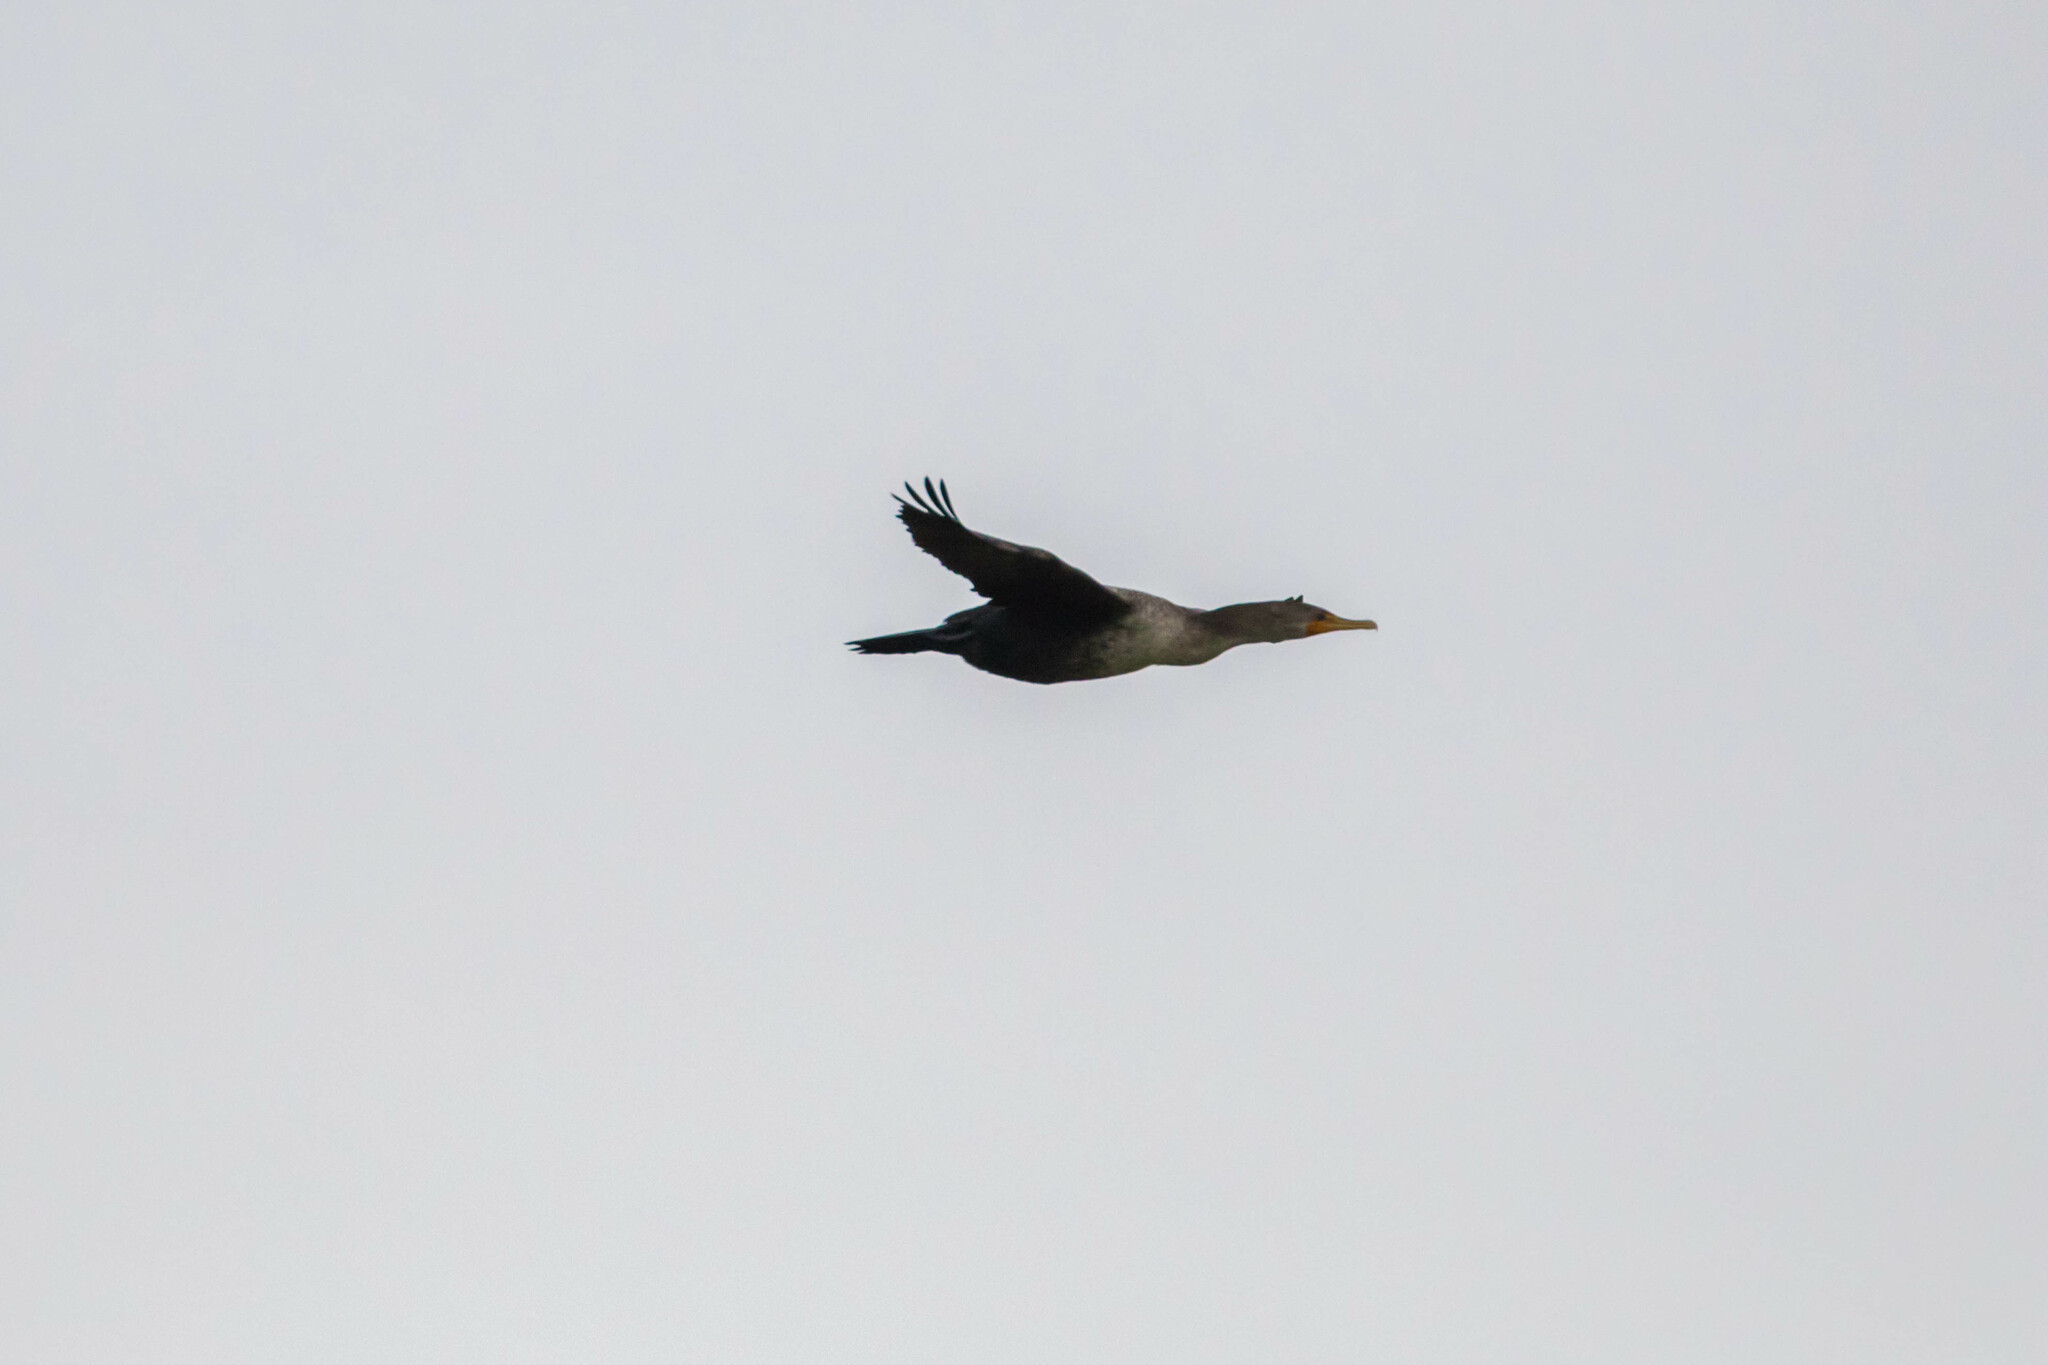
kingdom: Animalia
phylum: Chordata
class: Aves
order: Suliformes
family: Phalacrocoracidae
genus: Phalacrocorax
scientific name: Phalacrocorax auritus
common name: Double-crested cormorant
